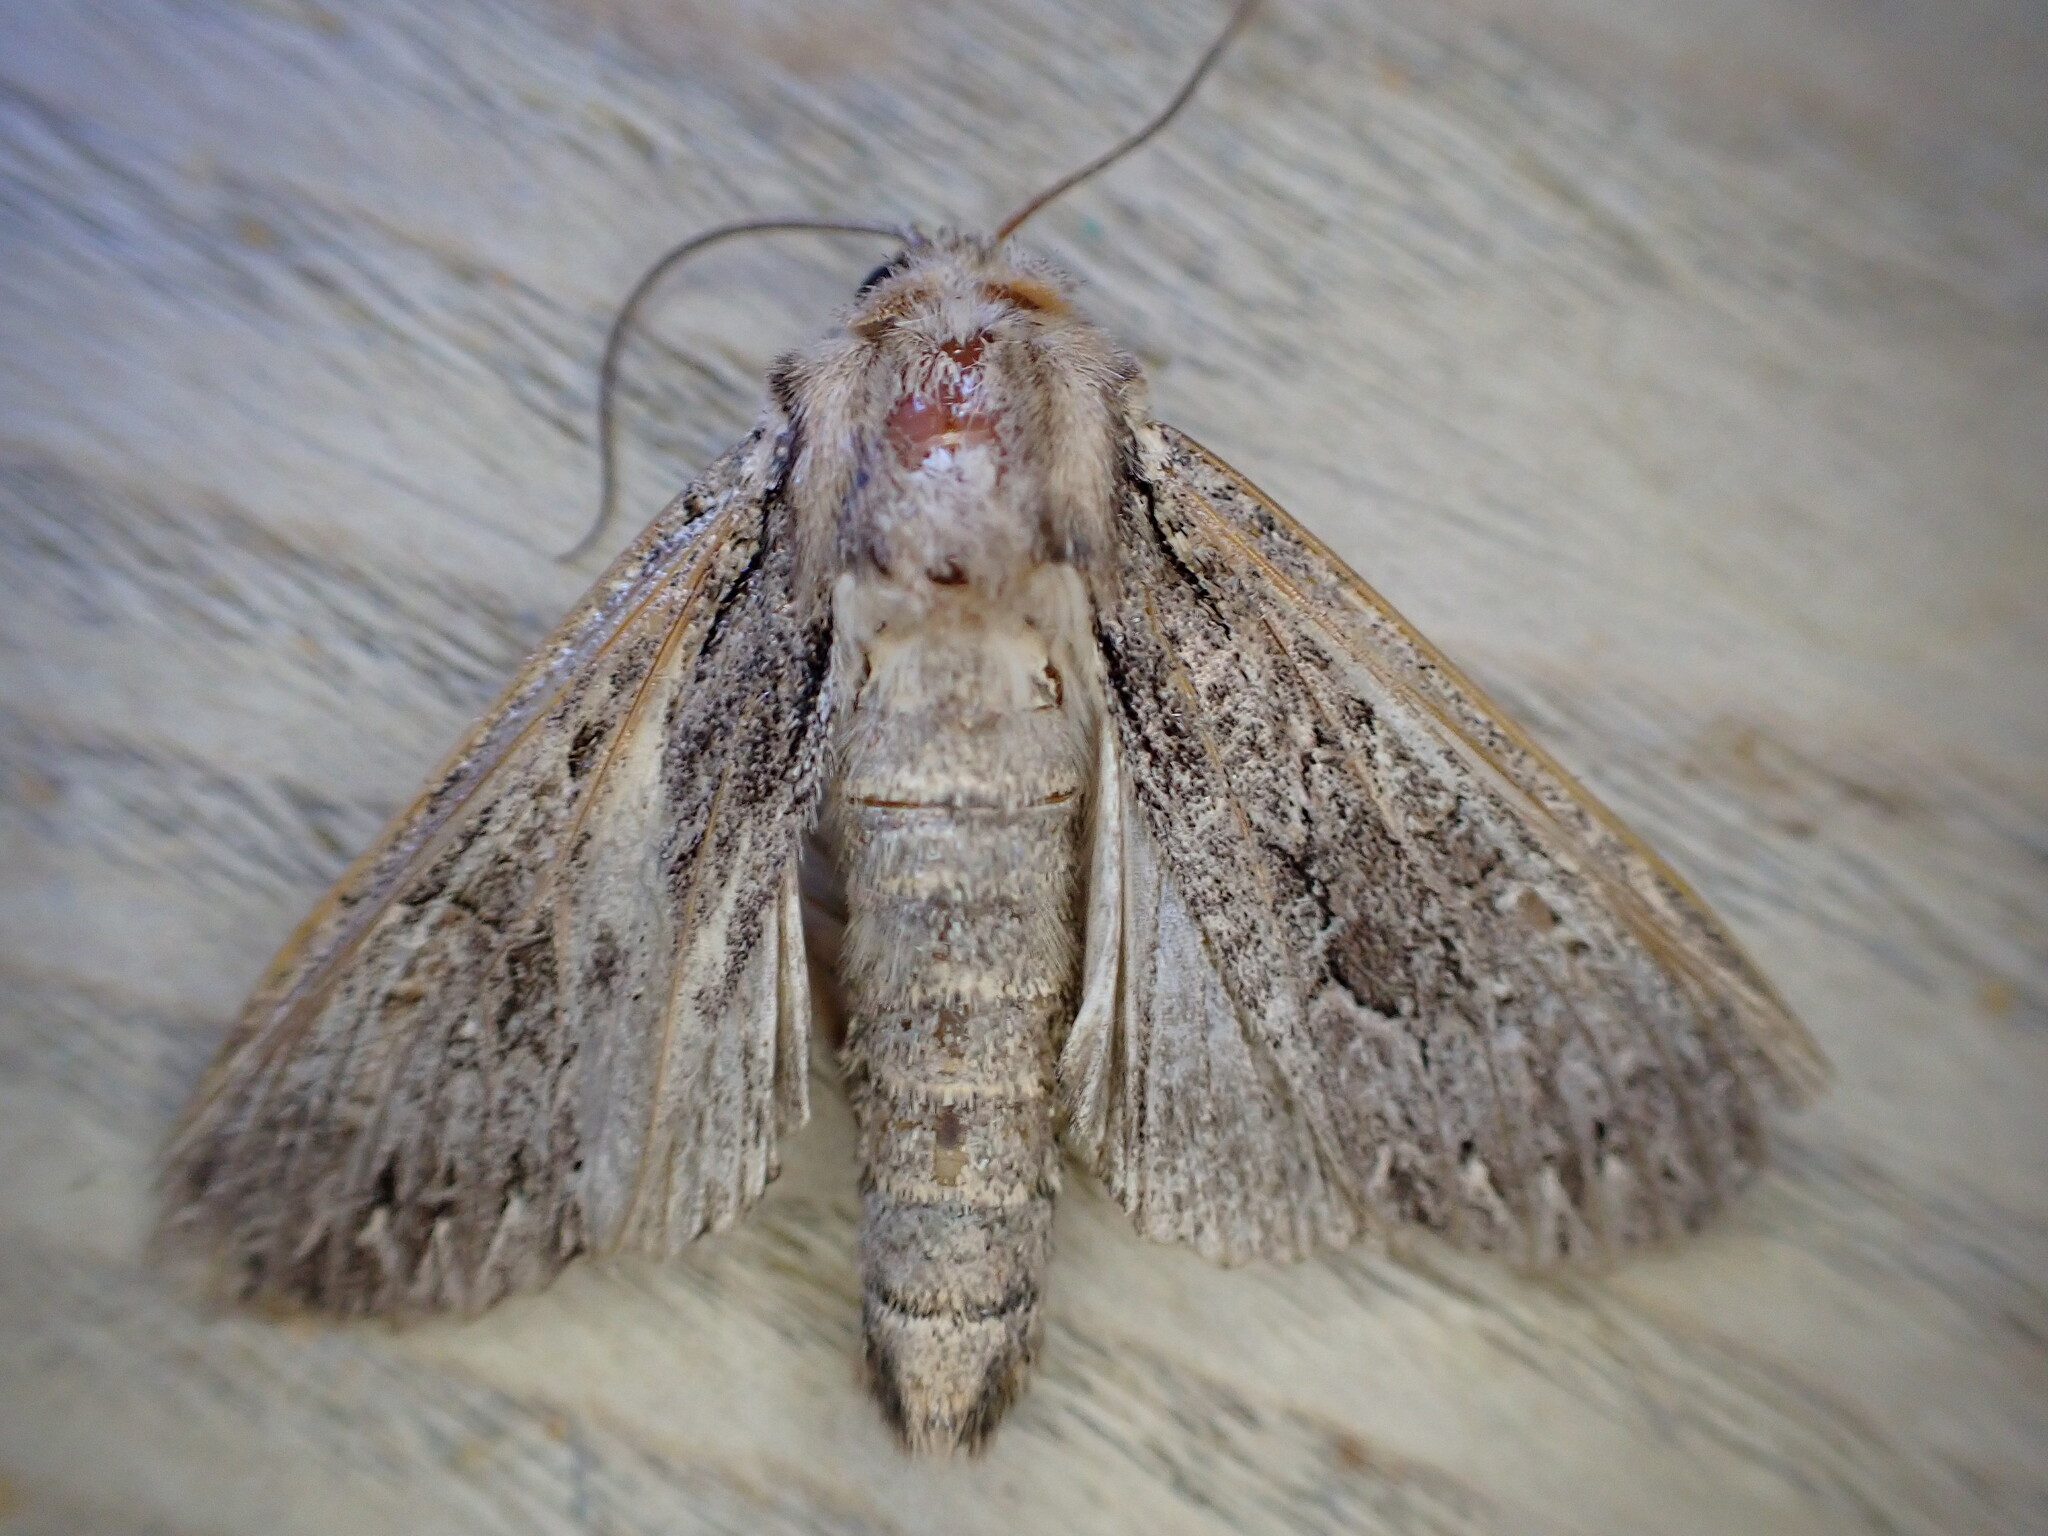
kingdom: Animalia
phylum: Arthropoda
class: Insecta
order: Lepidoptera
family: Noctuidae
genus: Apamea
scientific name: Apamea monoglypha
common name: Dark arches
